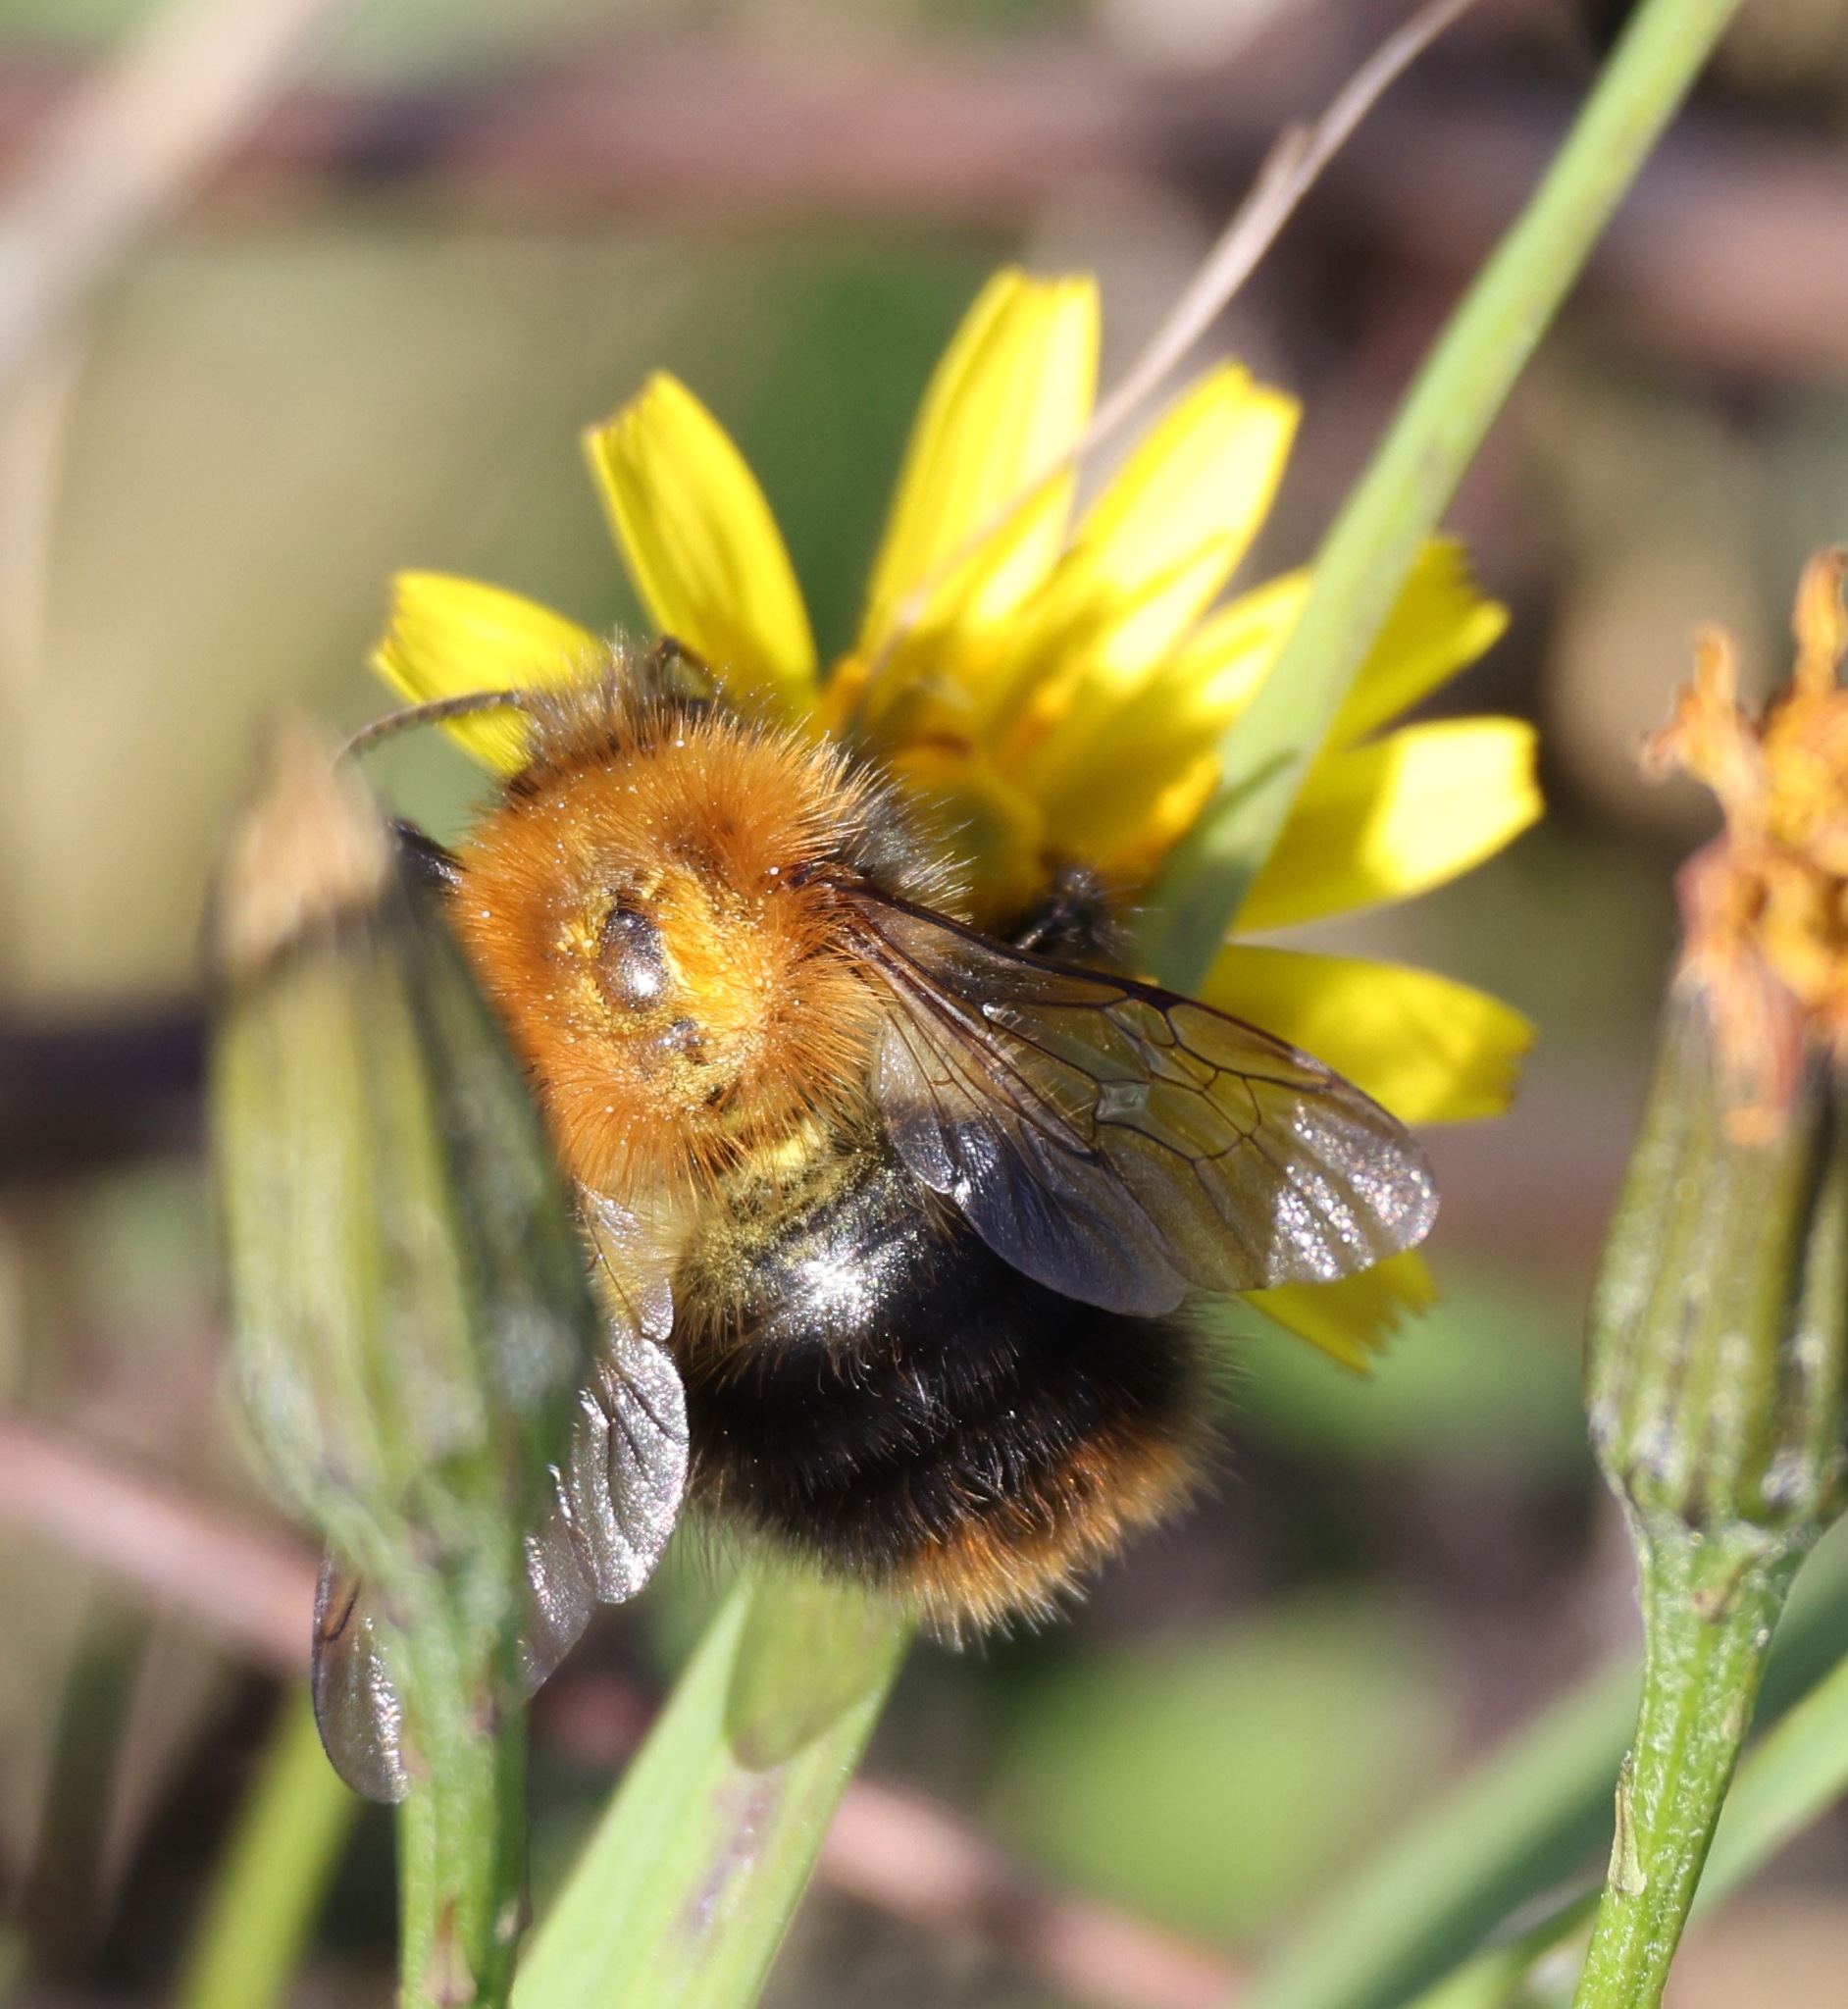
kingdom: Animalia
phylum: Arthropoda
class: Insecta
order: Hymenoptera
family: Apidae
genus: Bombus
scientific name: Bombus pascuorum
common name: Common carder bee
